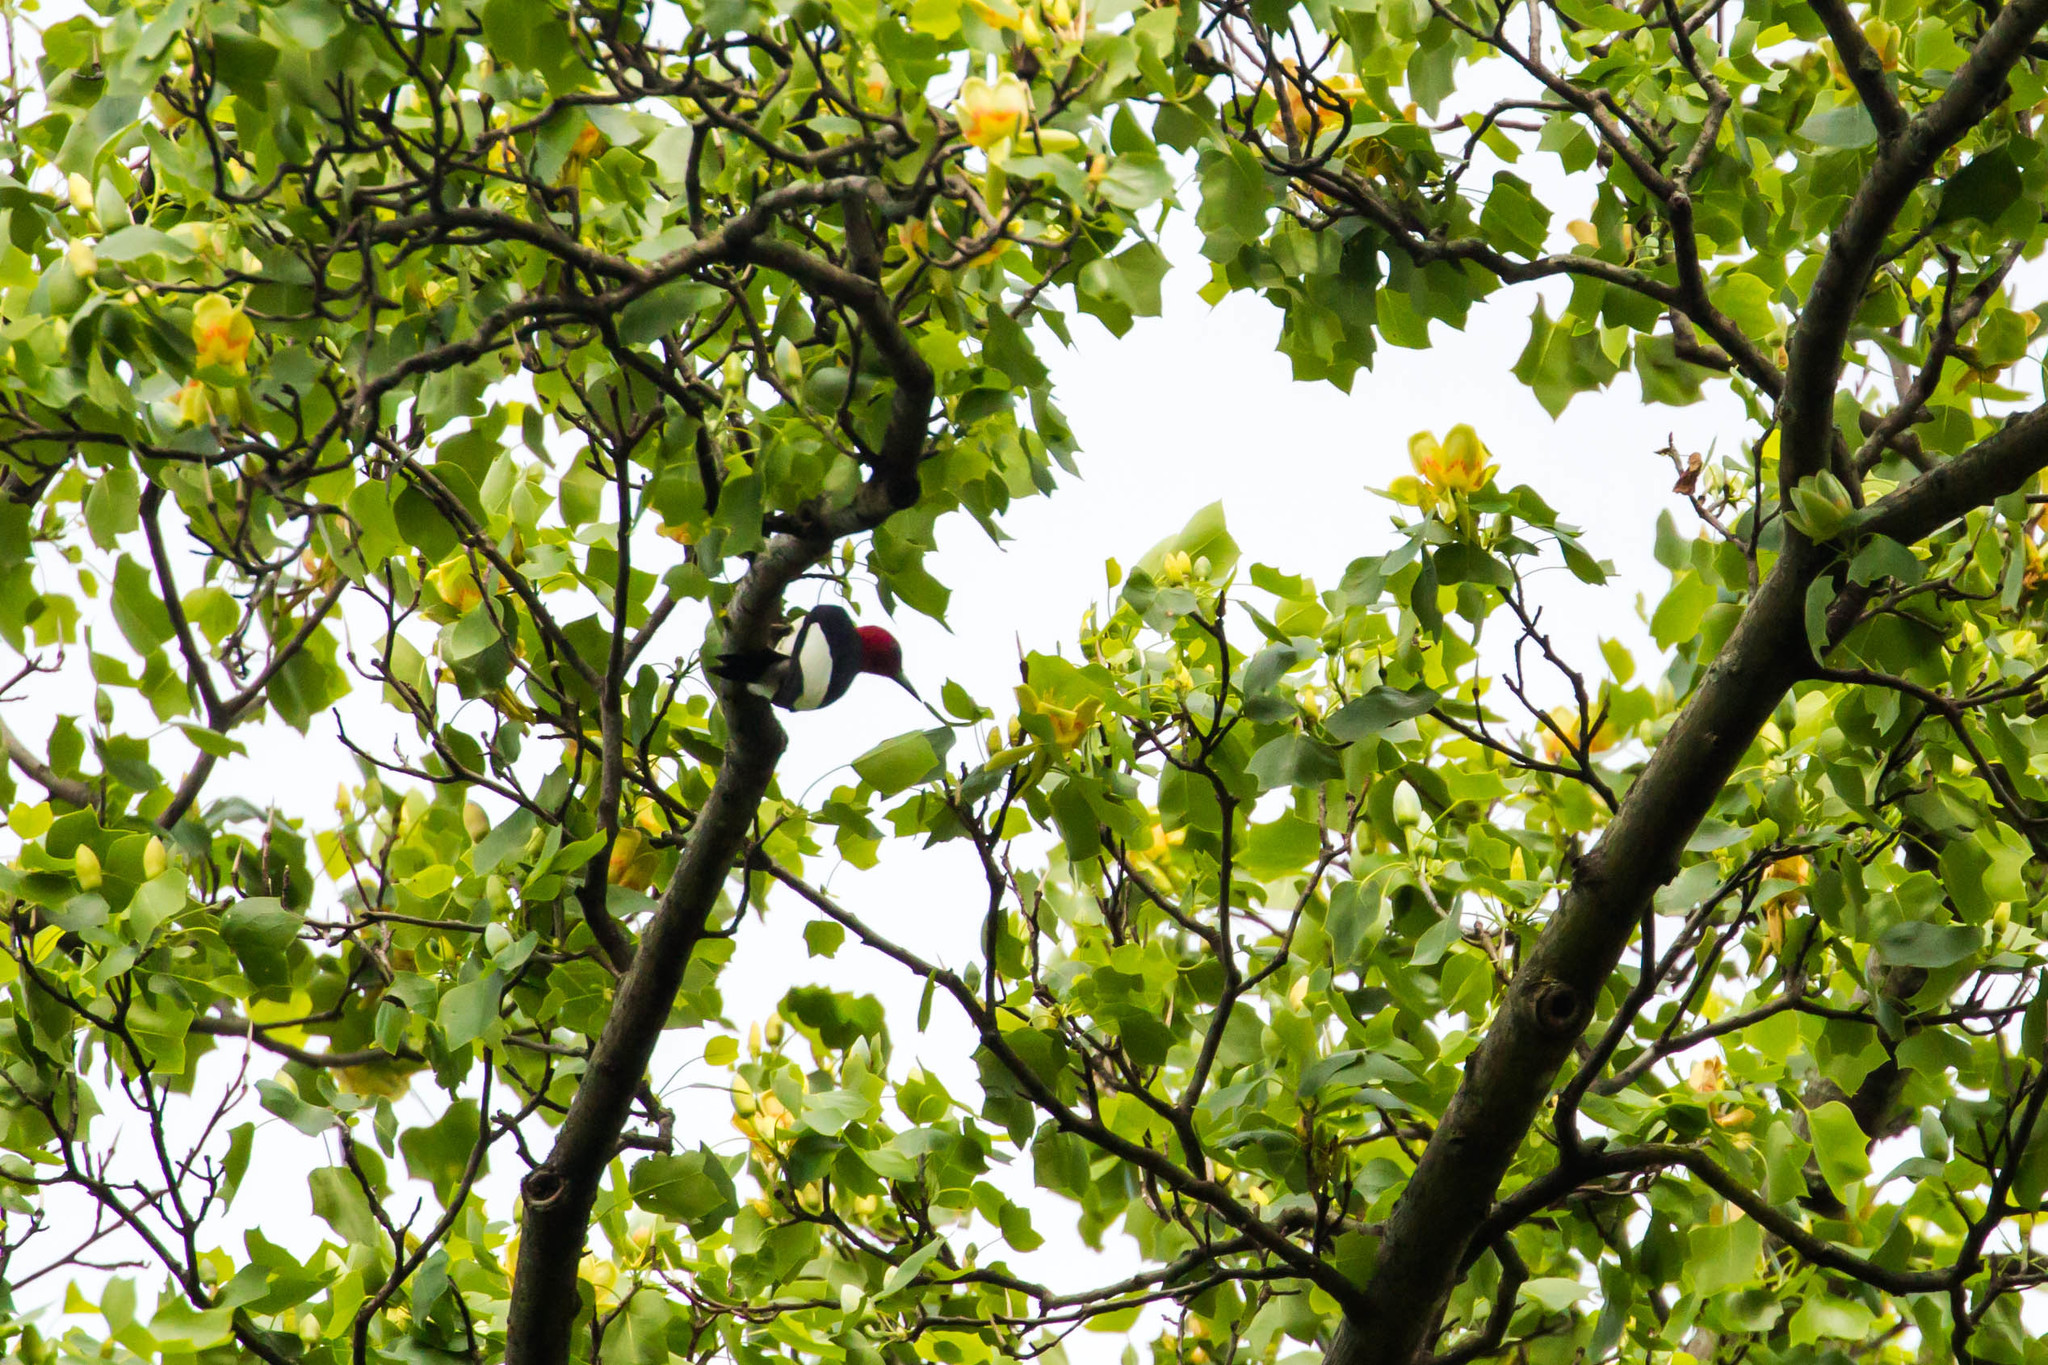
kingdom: Animalia
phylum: Chordata
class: Aves
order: Piciformes
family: Picidae
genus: Melanerpes
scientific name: Melanerpes erythrocephalus
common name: Red-headed woodpecker
